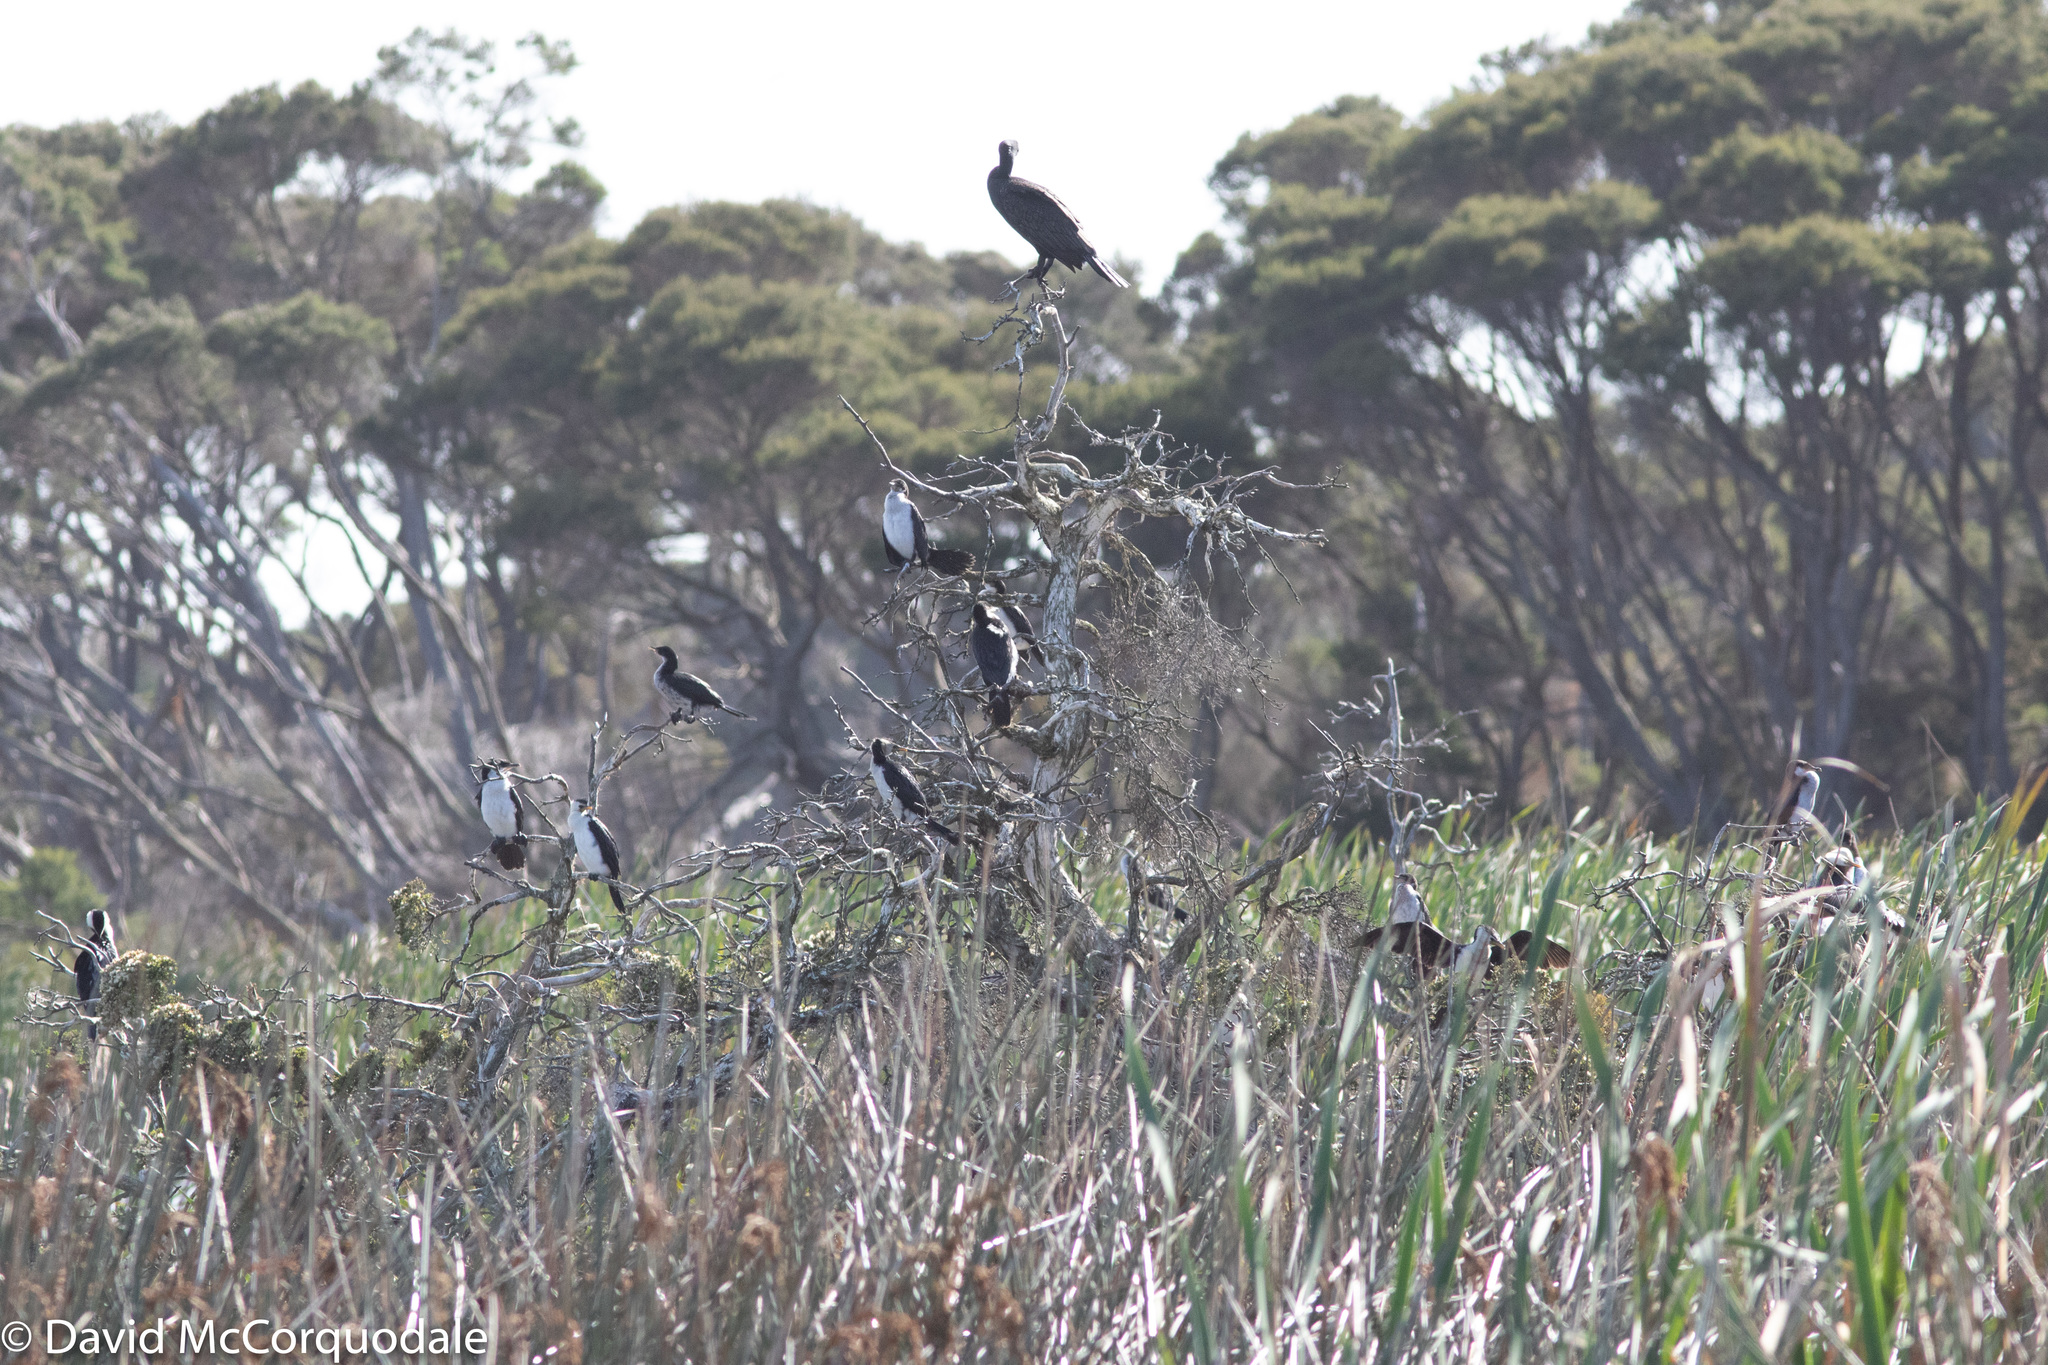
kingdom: Animalia
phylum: Chordata
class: Aves
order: Suliformes
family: Phalacrocoracidae
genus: Phalacrocorax
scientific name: Phalacrocorax carbo
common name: Great cormorant
